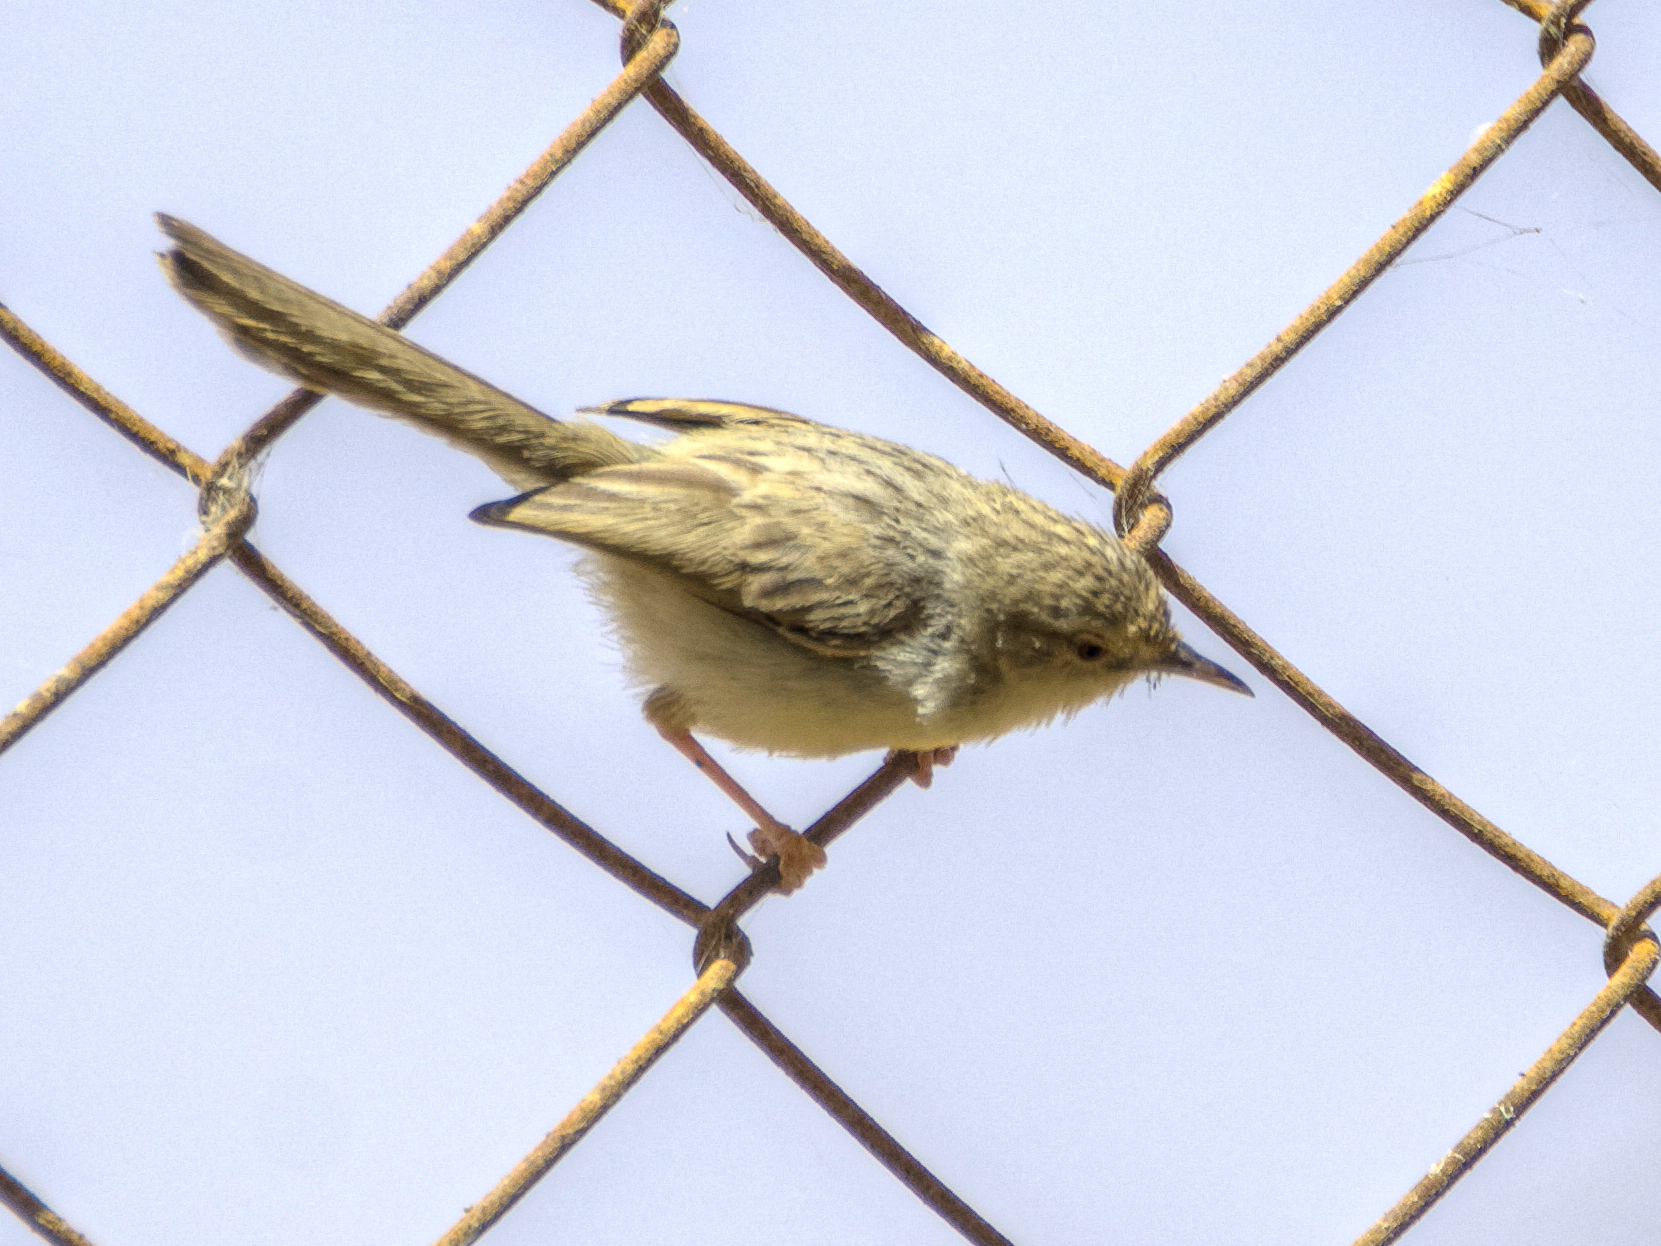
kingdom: Animalia
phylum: Chordata
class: Aves
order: Passeriformes
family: Cisticolidae
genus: Prinia
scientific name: Prinia gracilis
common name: Graceful prinia
